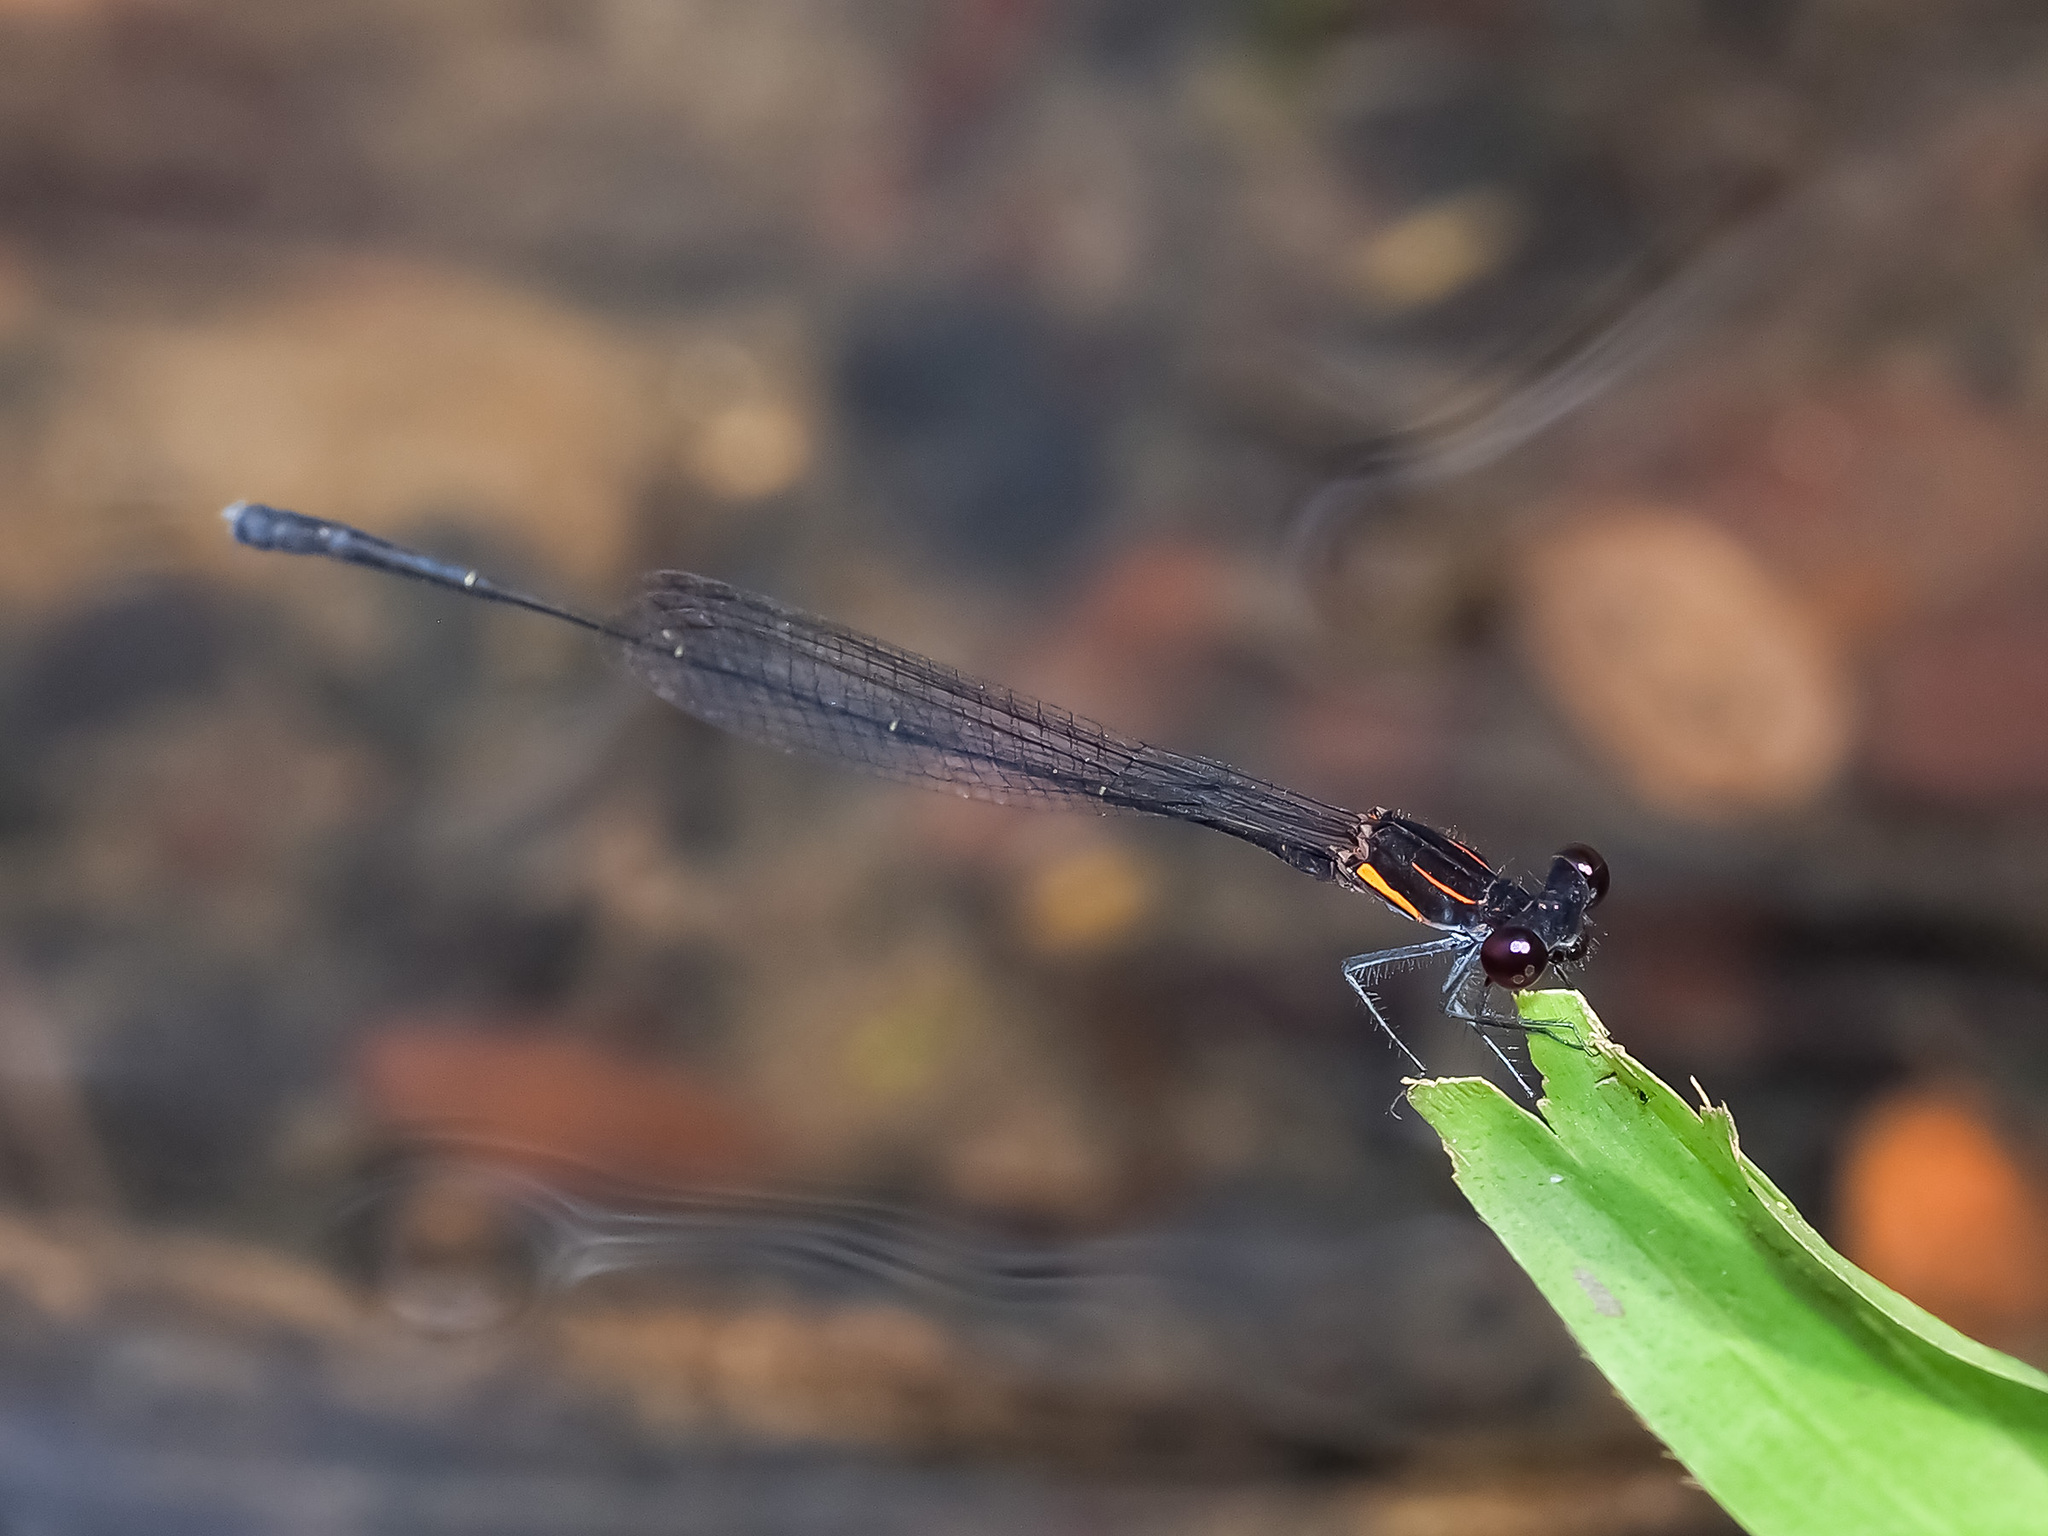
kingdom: Animalia
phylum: Arthropoda
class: Insecta
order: Odonata
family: Platycnemididae
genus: Prodasineura
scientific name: Prodasineura verticalis
